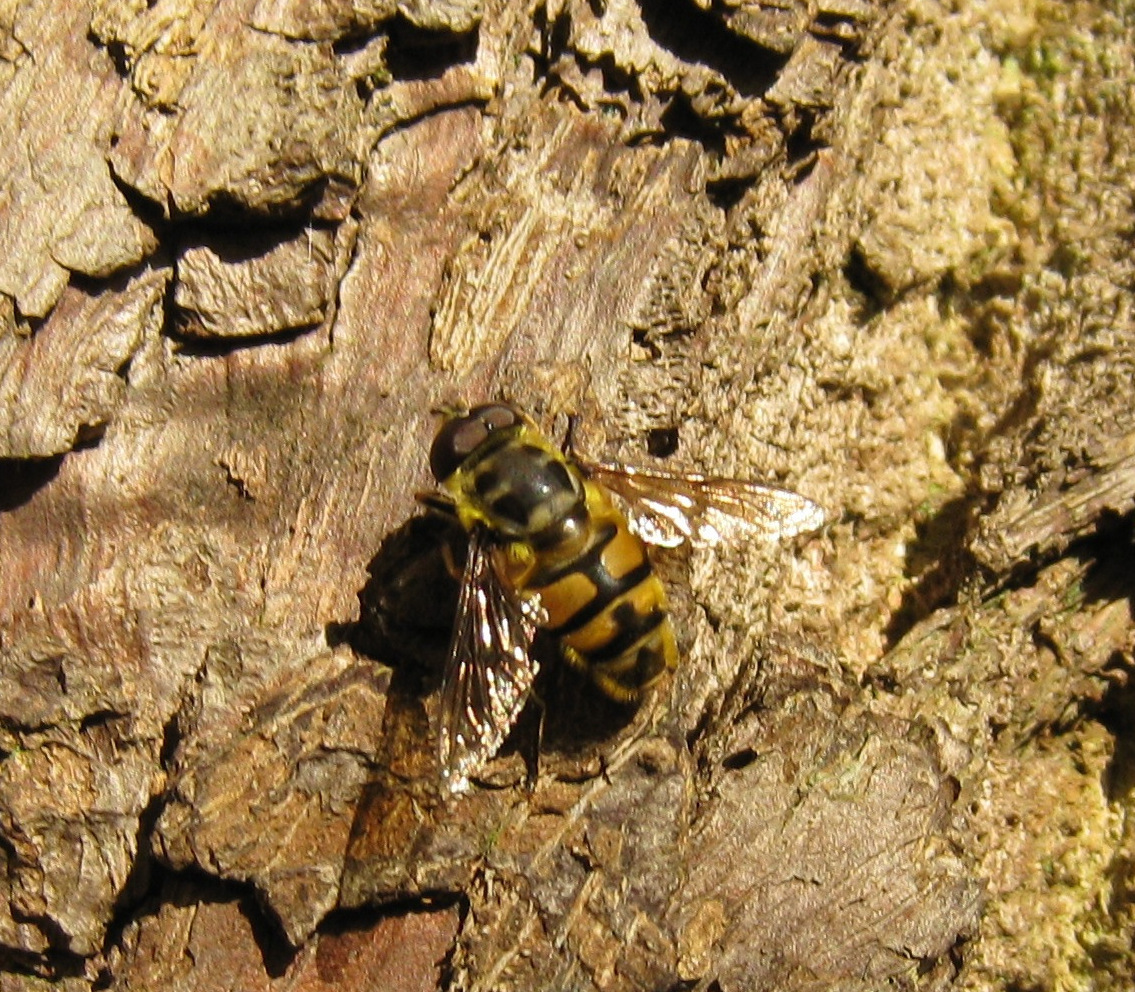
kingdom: Animalia
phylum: Arthropoda
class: Insecta
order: Diptera
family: Syrphidae
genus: Myathropa
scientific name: Myathropa florea
